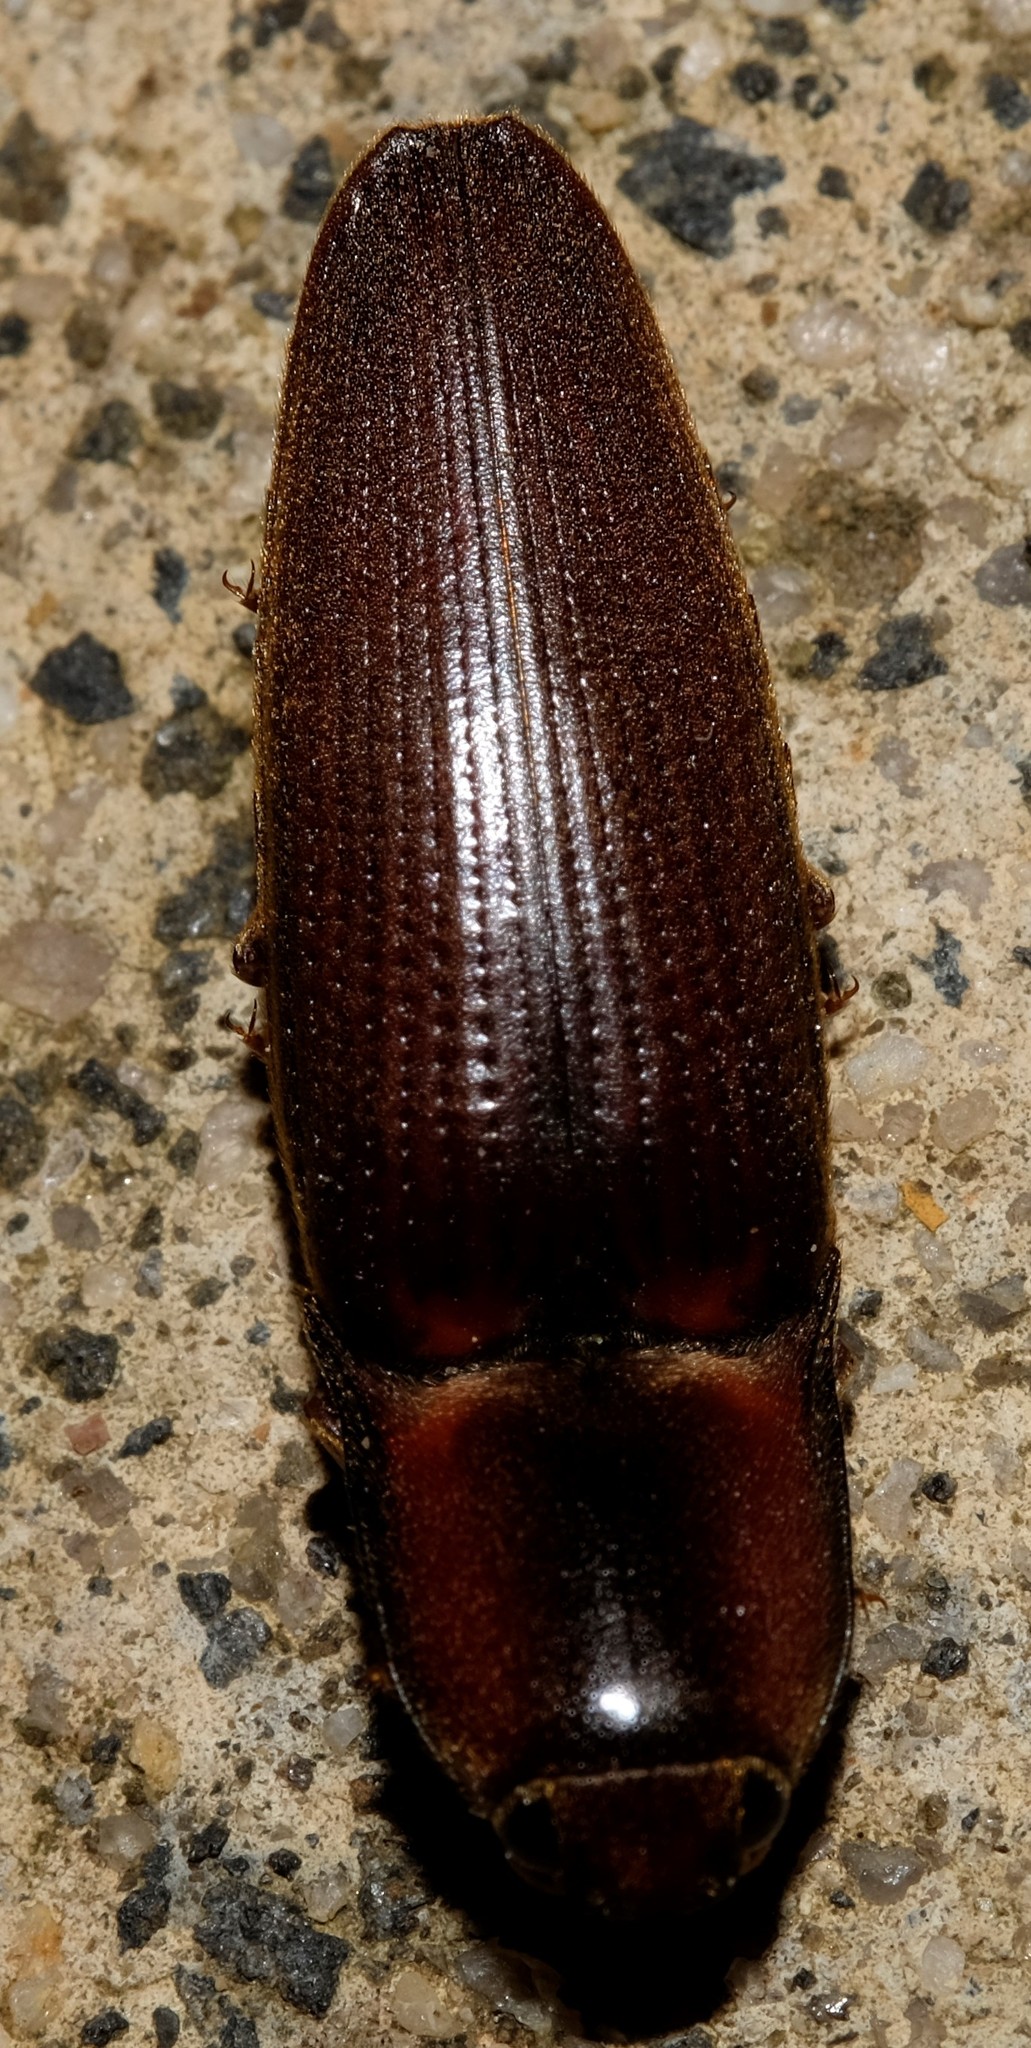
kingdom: Animalia
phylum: Arthropoda
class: Insecta
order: Coleoptera
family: Elateridae
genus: Monocrepidius
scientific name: Monocrepidius
